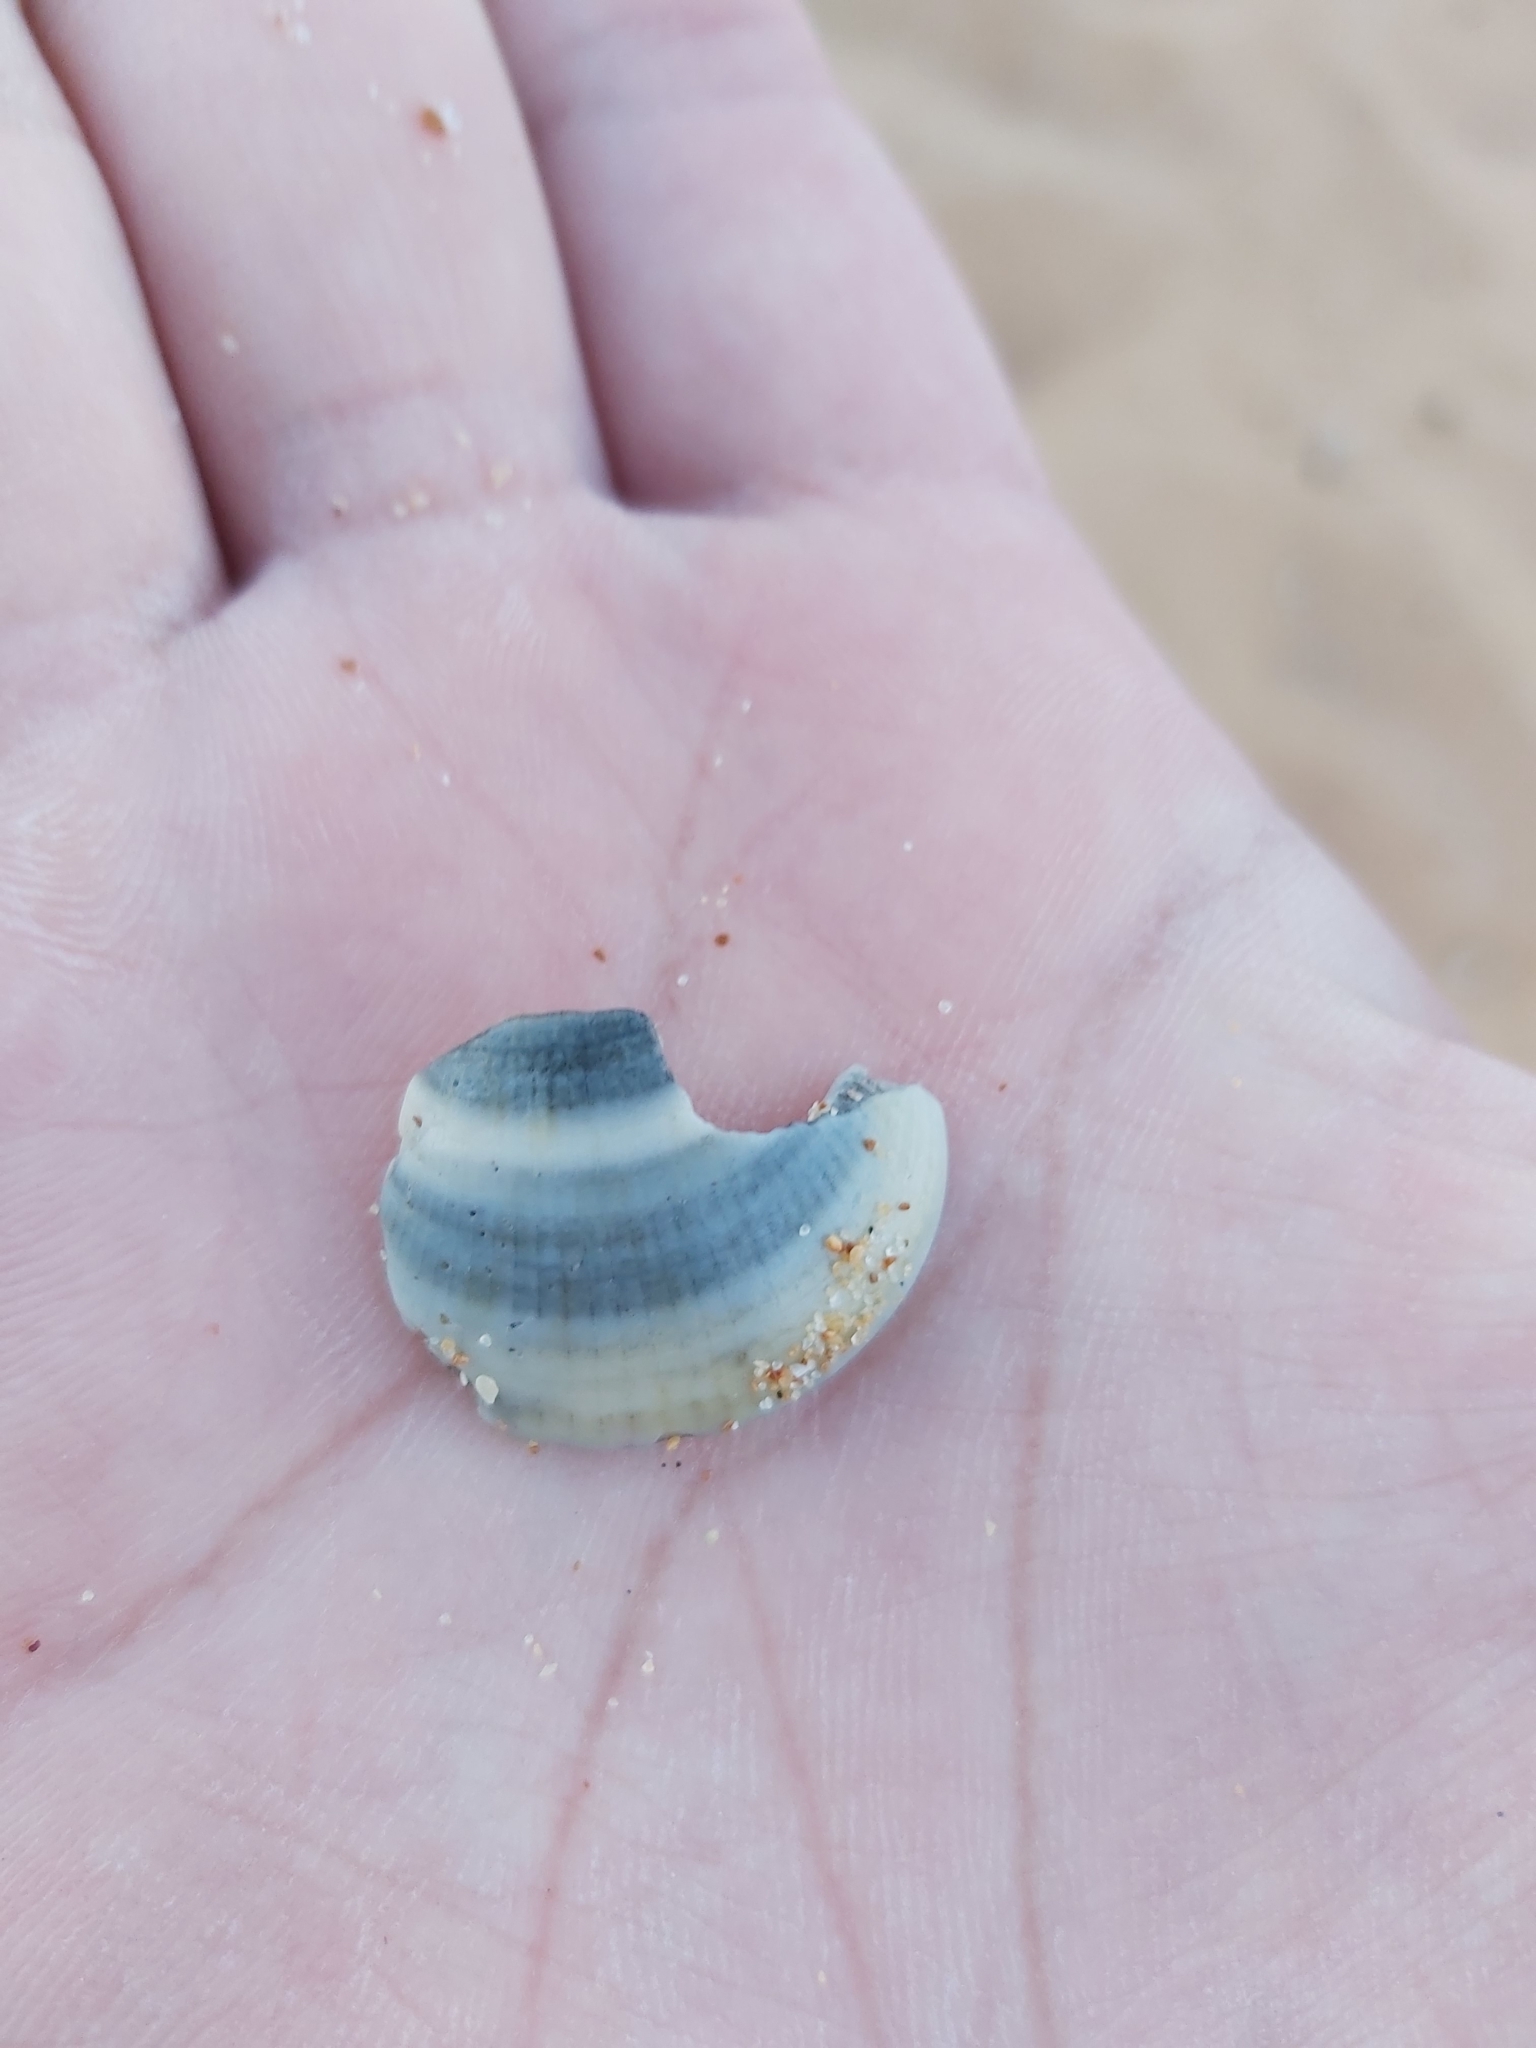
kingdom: Animalia
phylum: Mollusca
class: Bivalvia
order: Arcida
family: Glycymerididae
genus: Glycymeris
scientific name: Glycymeris grayana
